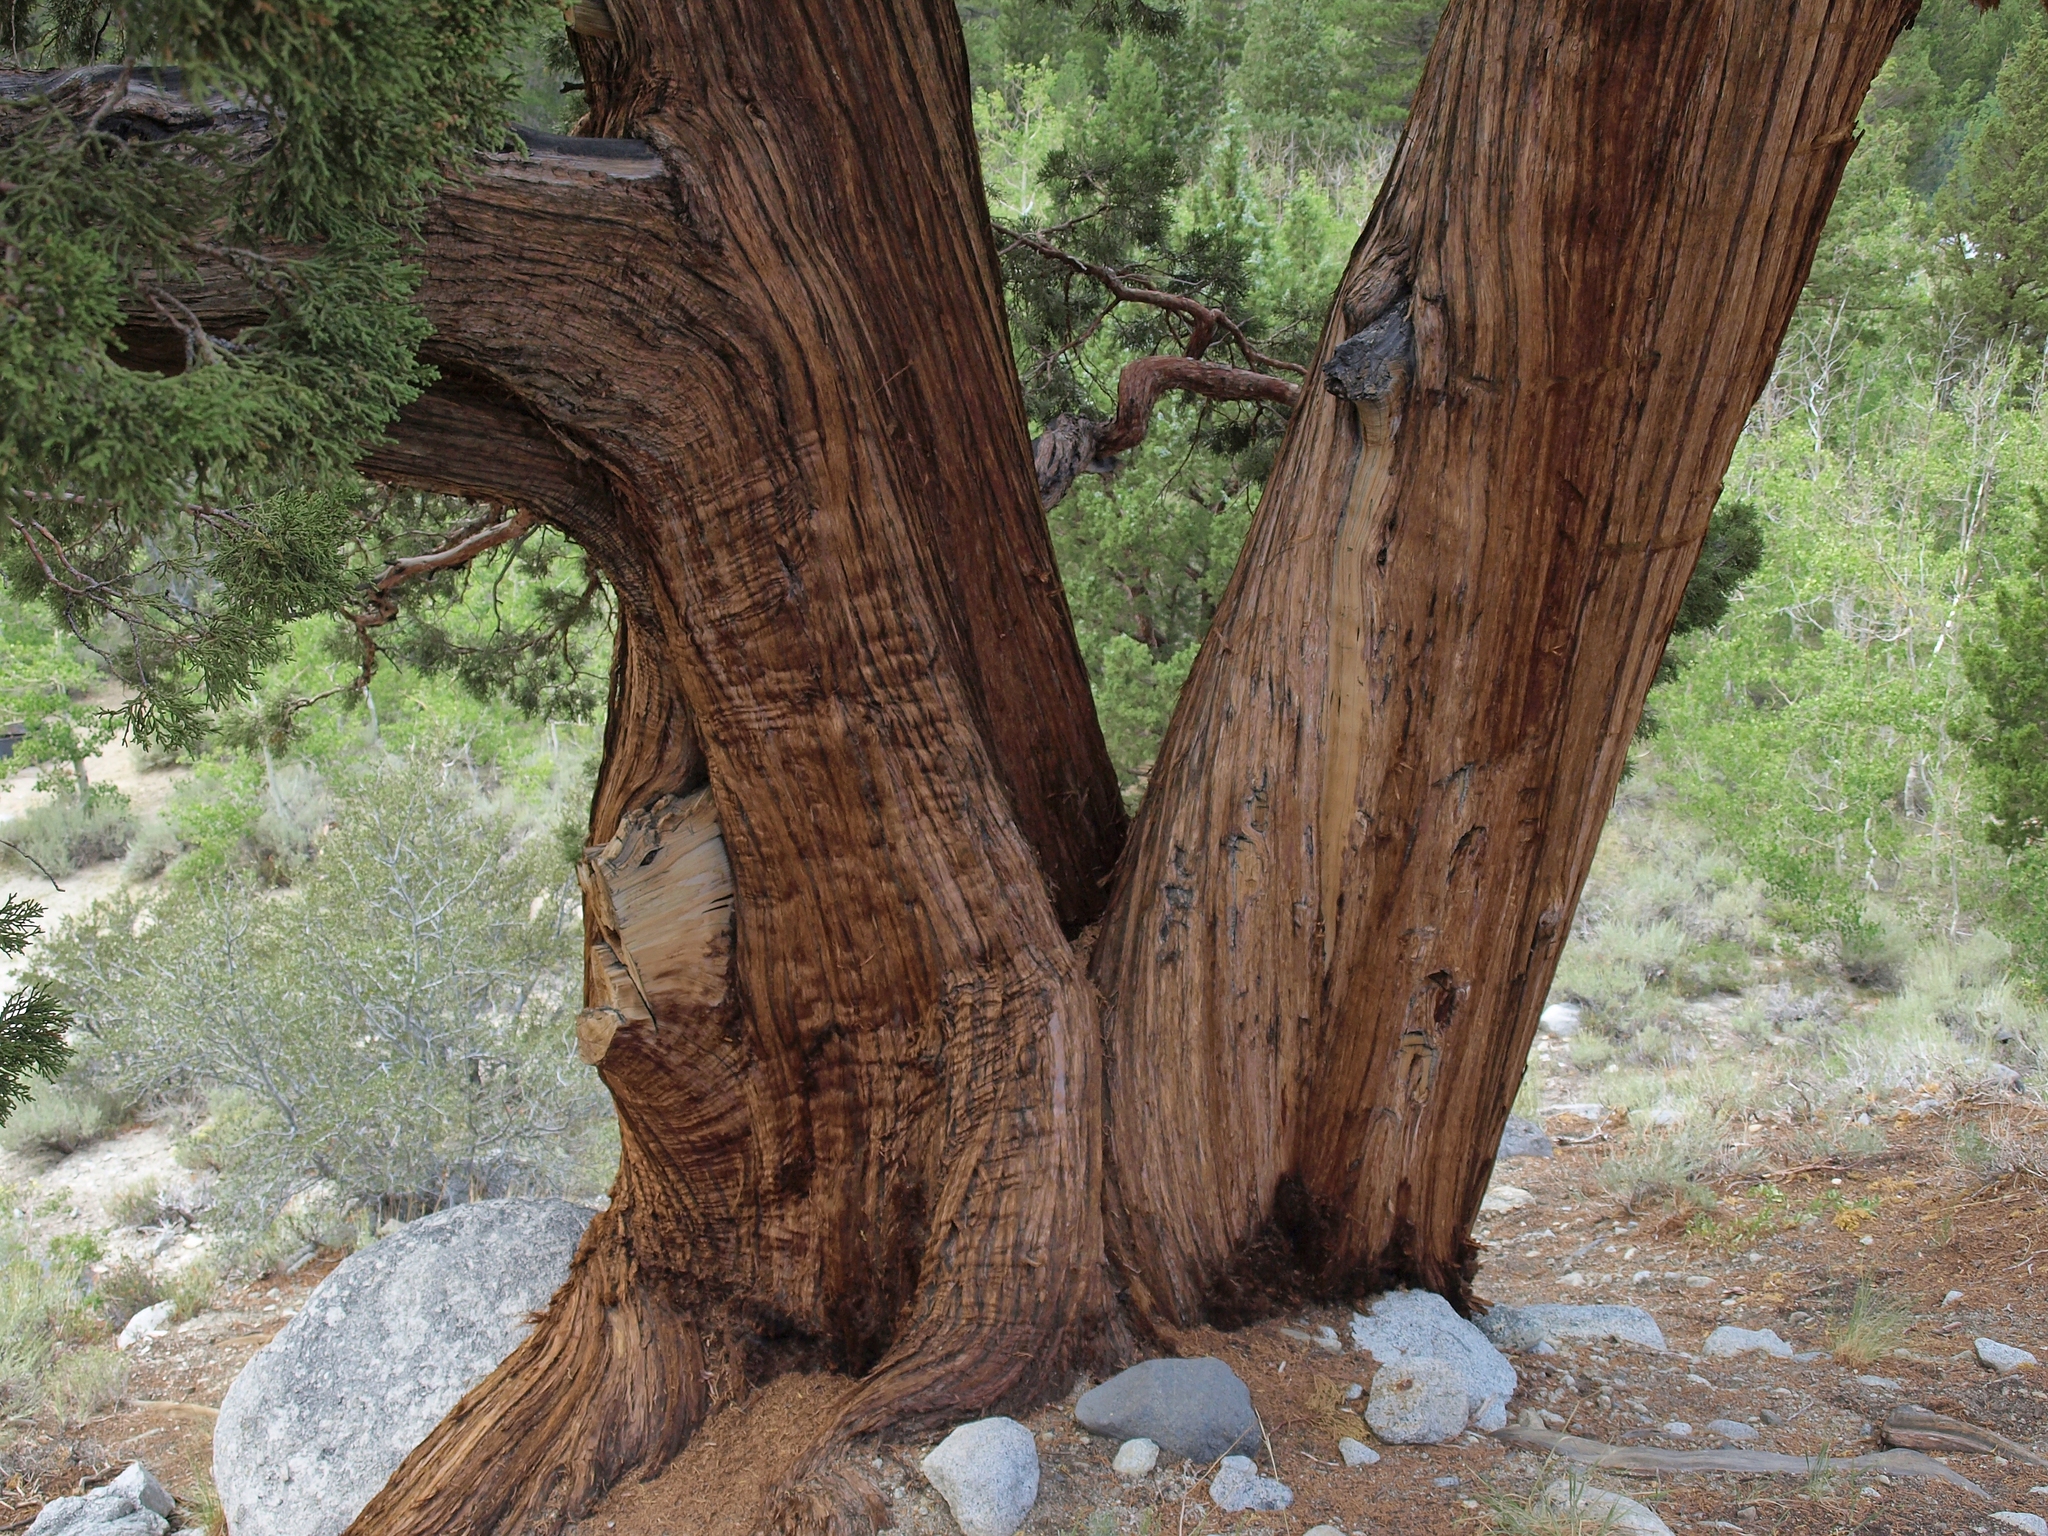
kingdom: Plantae
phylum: Tracheophyta
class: Pinopsida
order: Pinales
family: Cupressaceae
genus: Juniperus
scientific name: Juniperus occidentalis
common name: Western juniper
